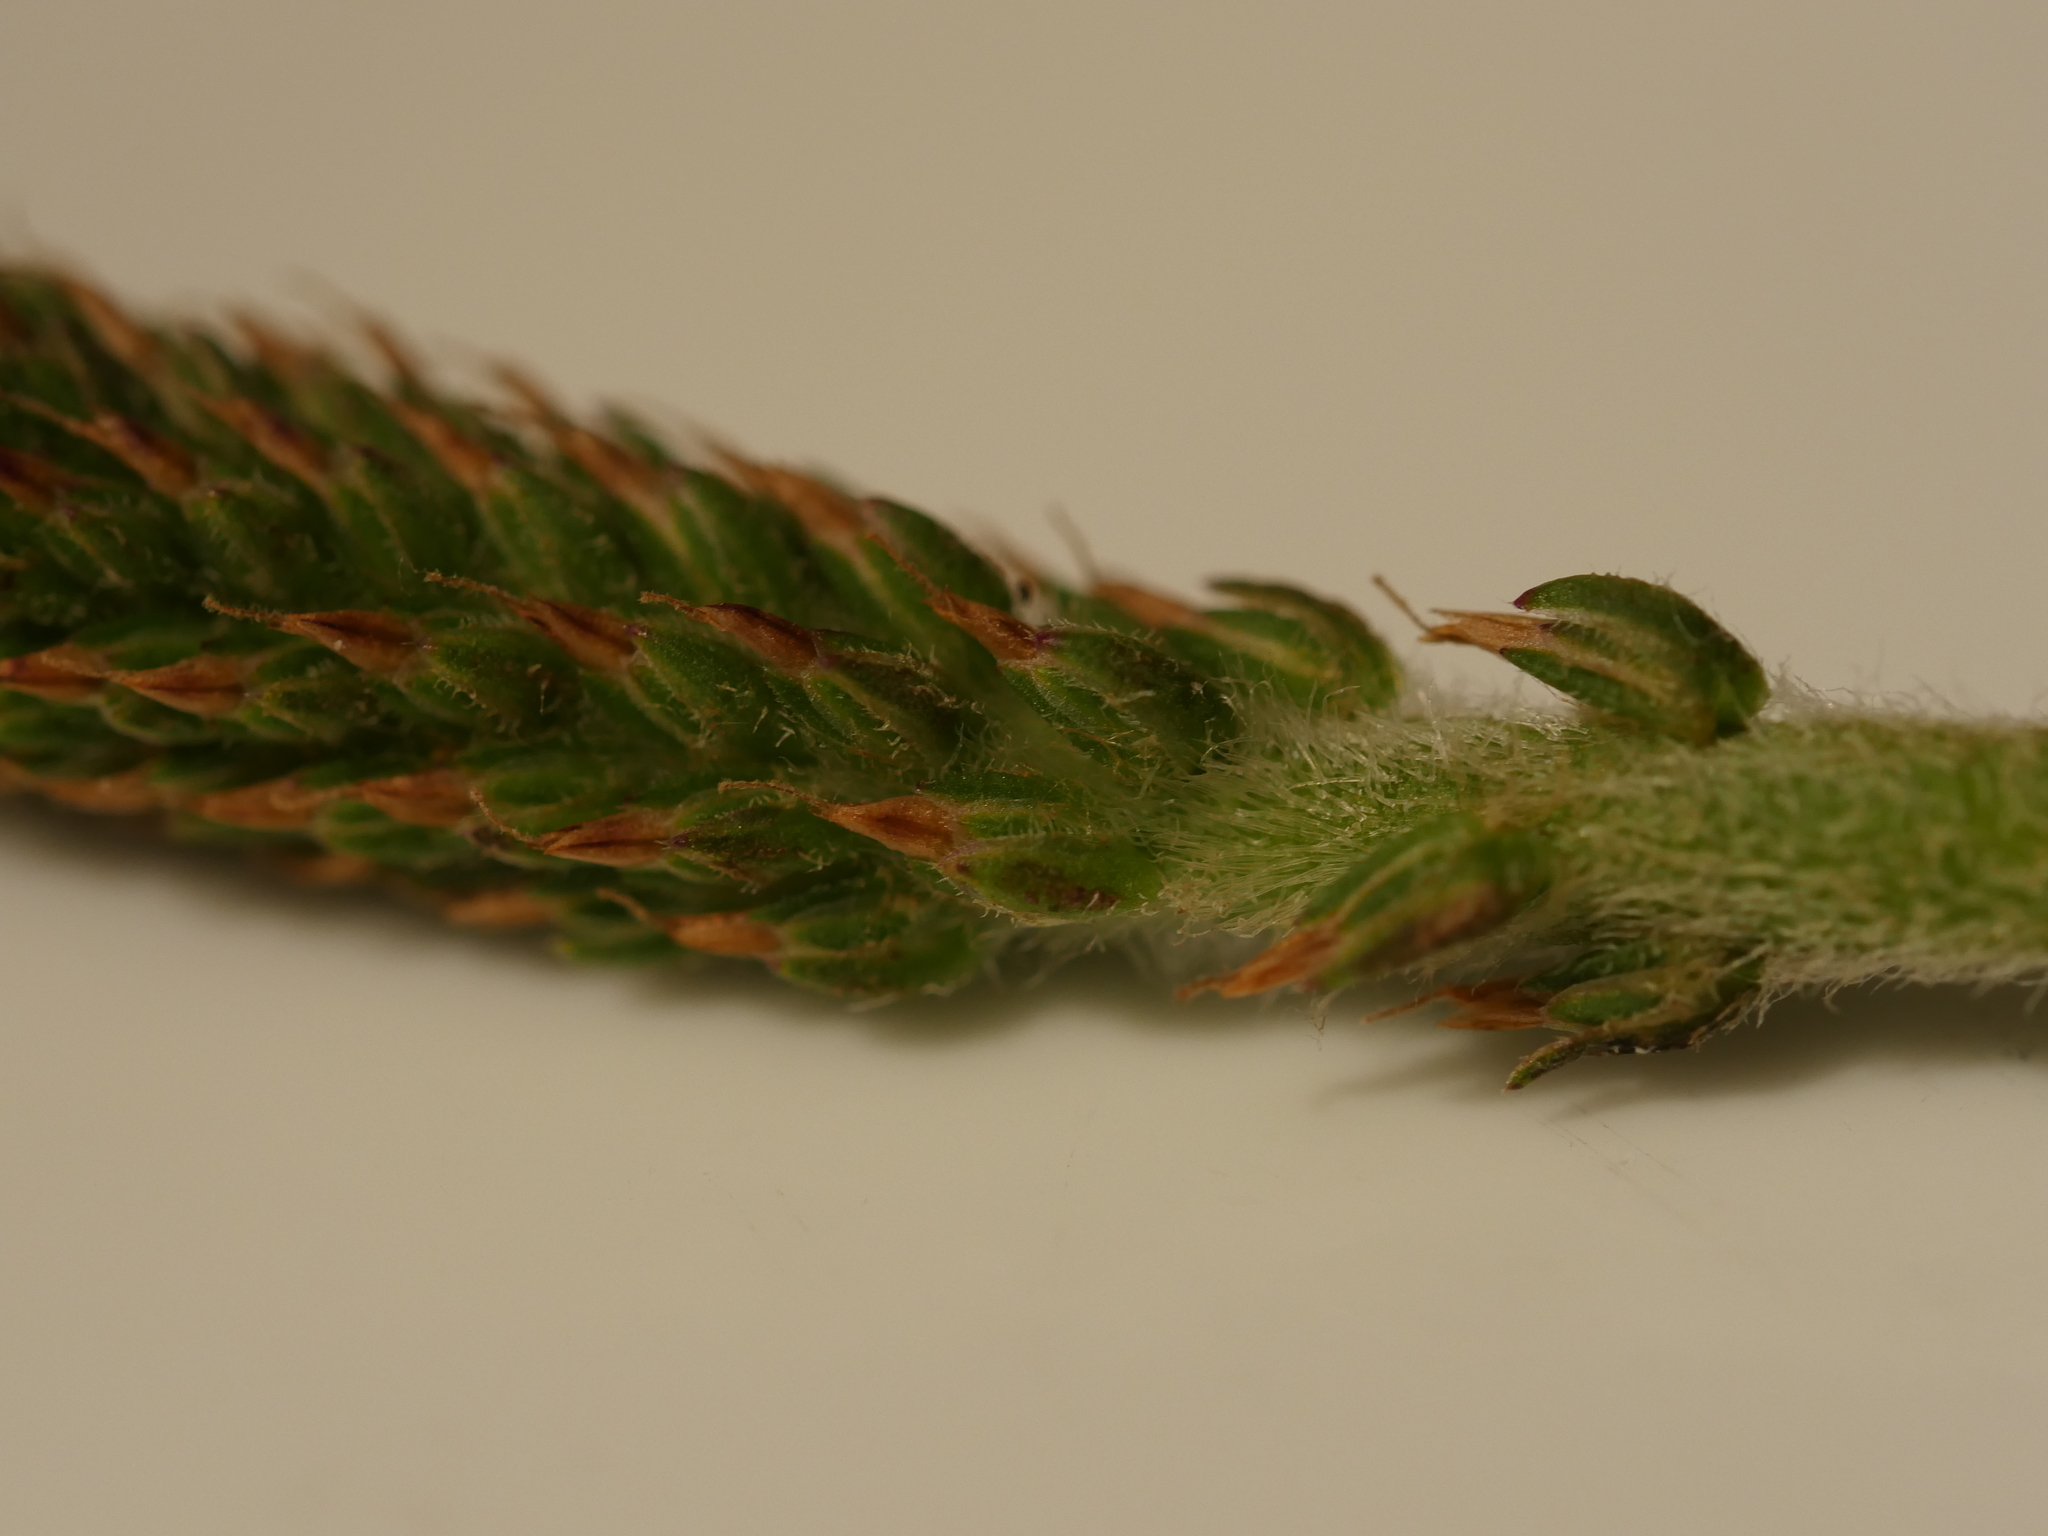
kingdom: Plantae
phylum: Tracheophyta
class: Magnoliopsida
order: Lamiales
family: Plantaginaceae
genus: Plantago
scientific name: Plantago australis
